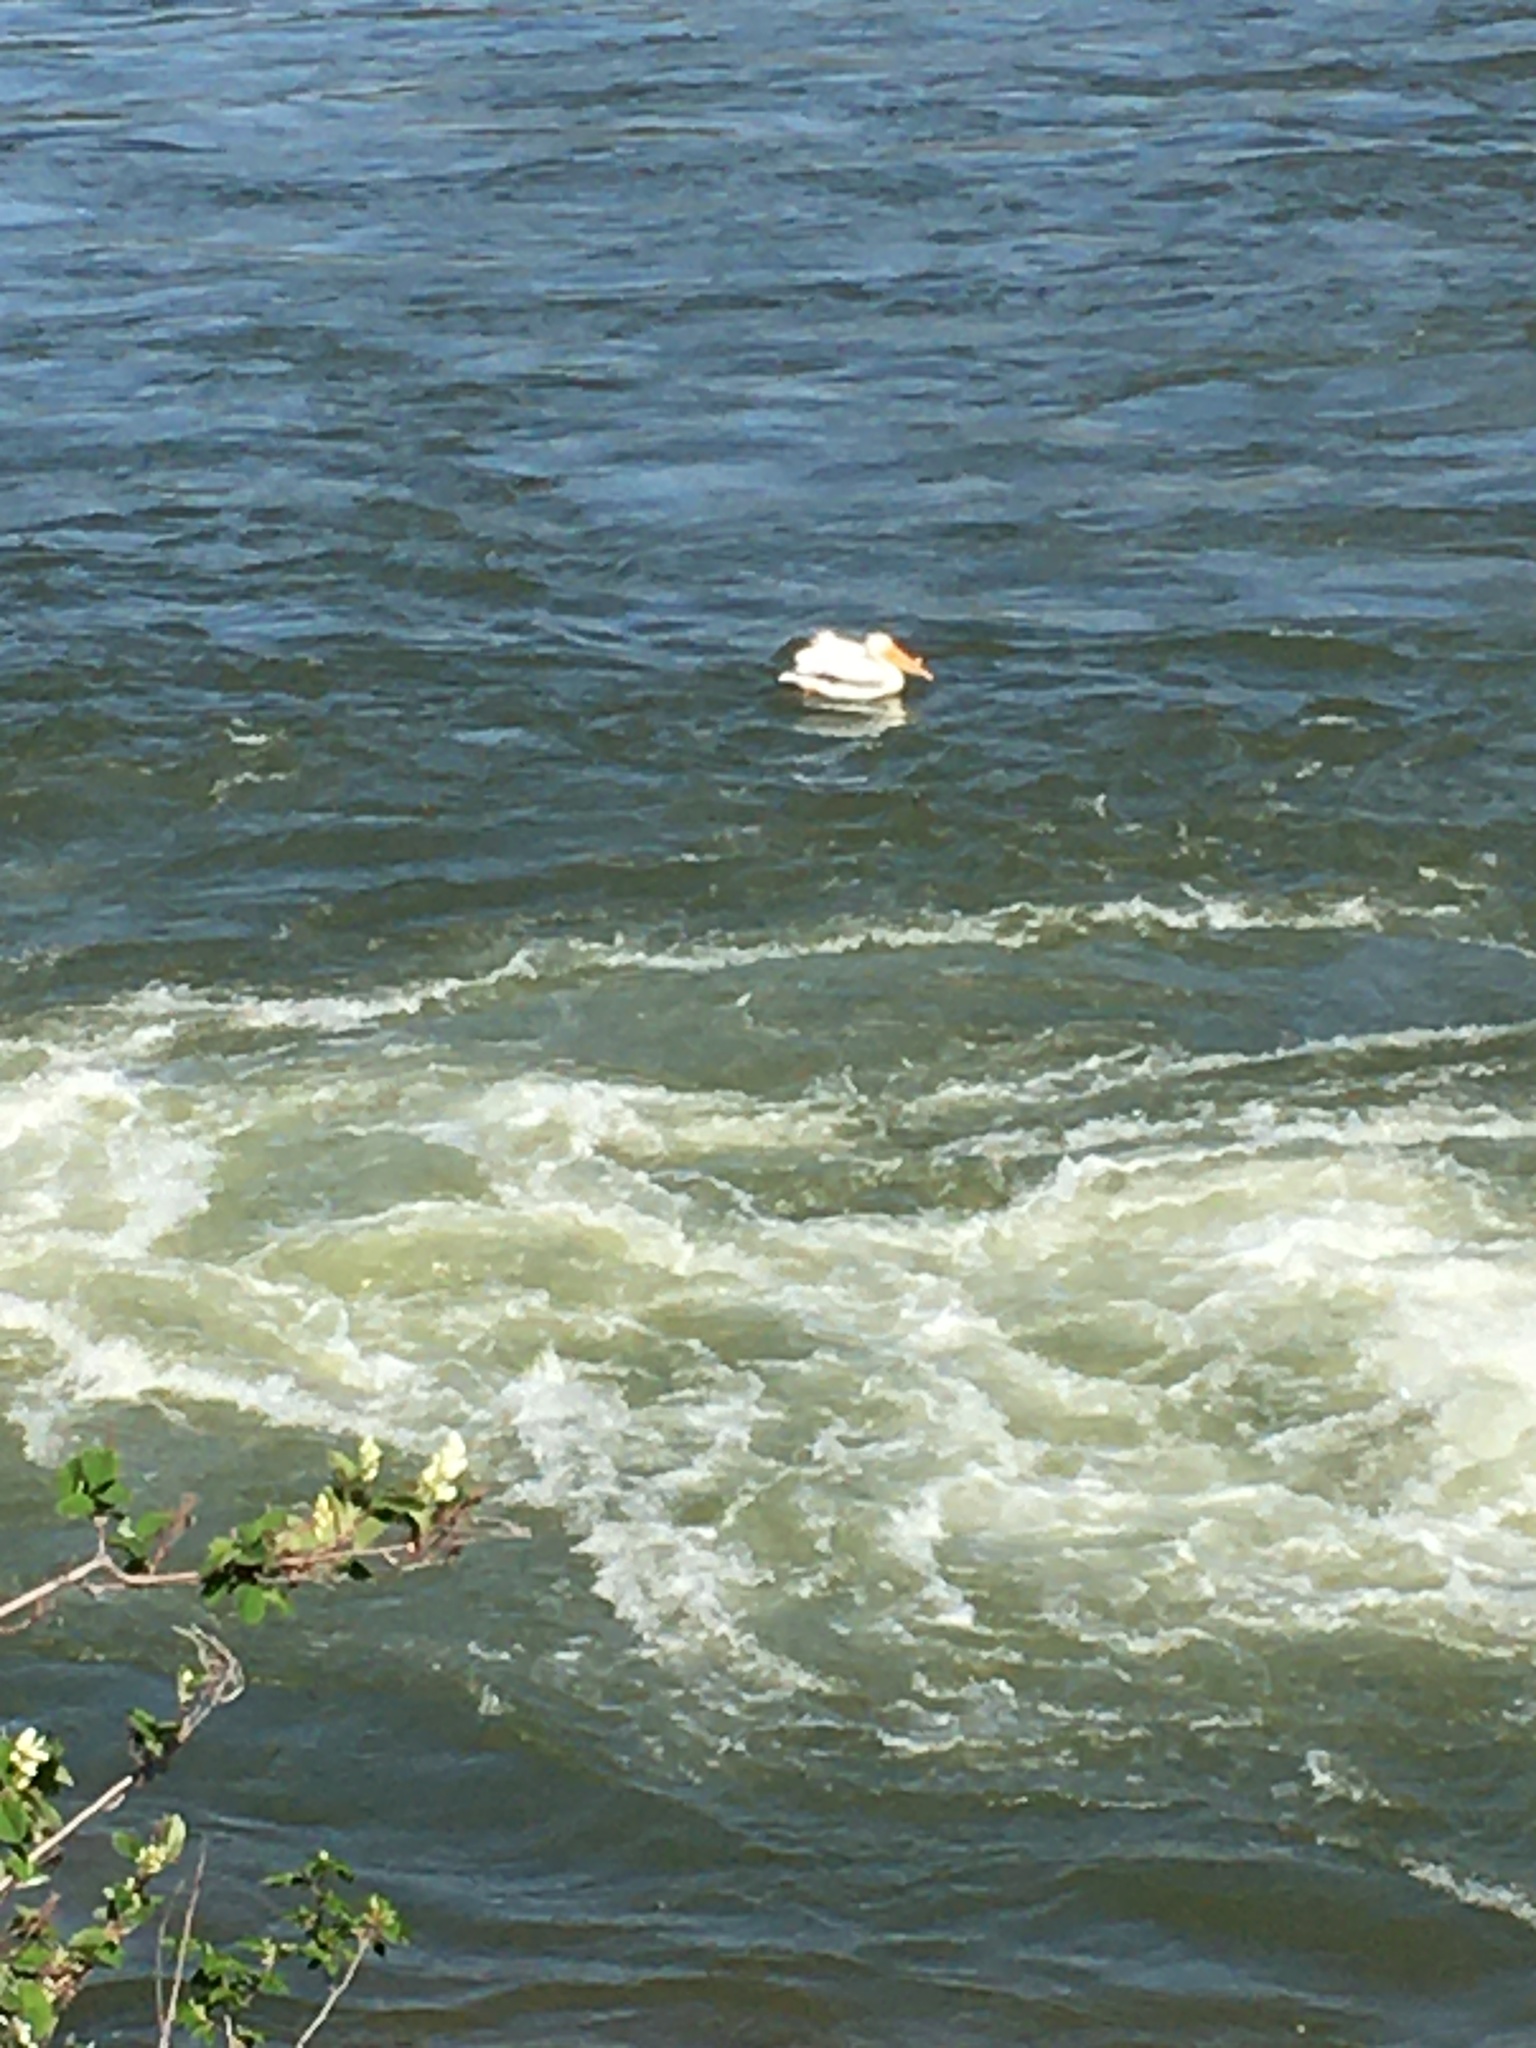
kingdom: Animalia
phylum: Chordata
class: Aves
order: Pelecaniformes
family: Pelecanidae
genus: Pelecanus
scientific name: Pelecanus erythrorhynchos
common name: American white pelican
